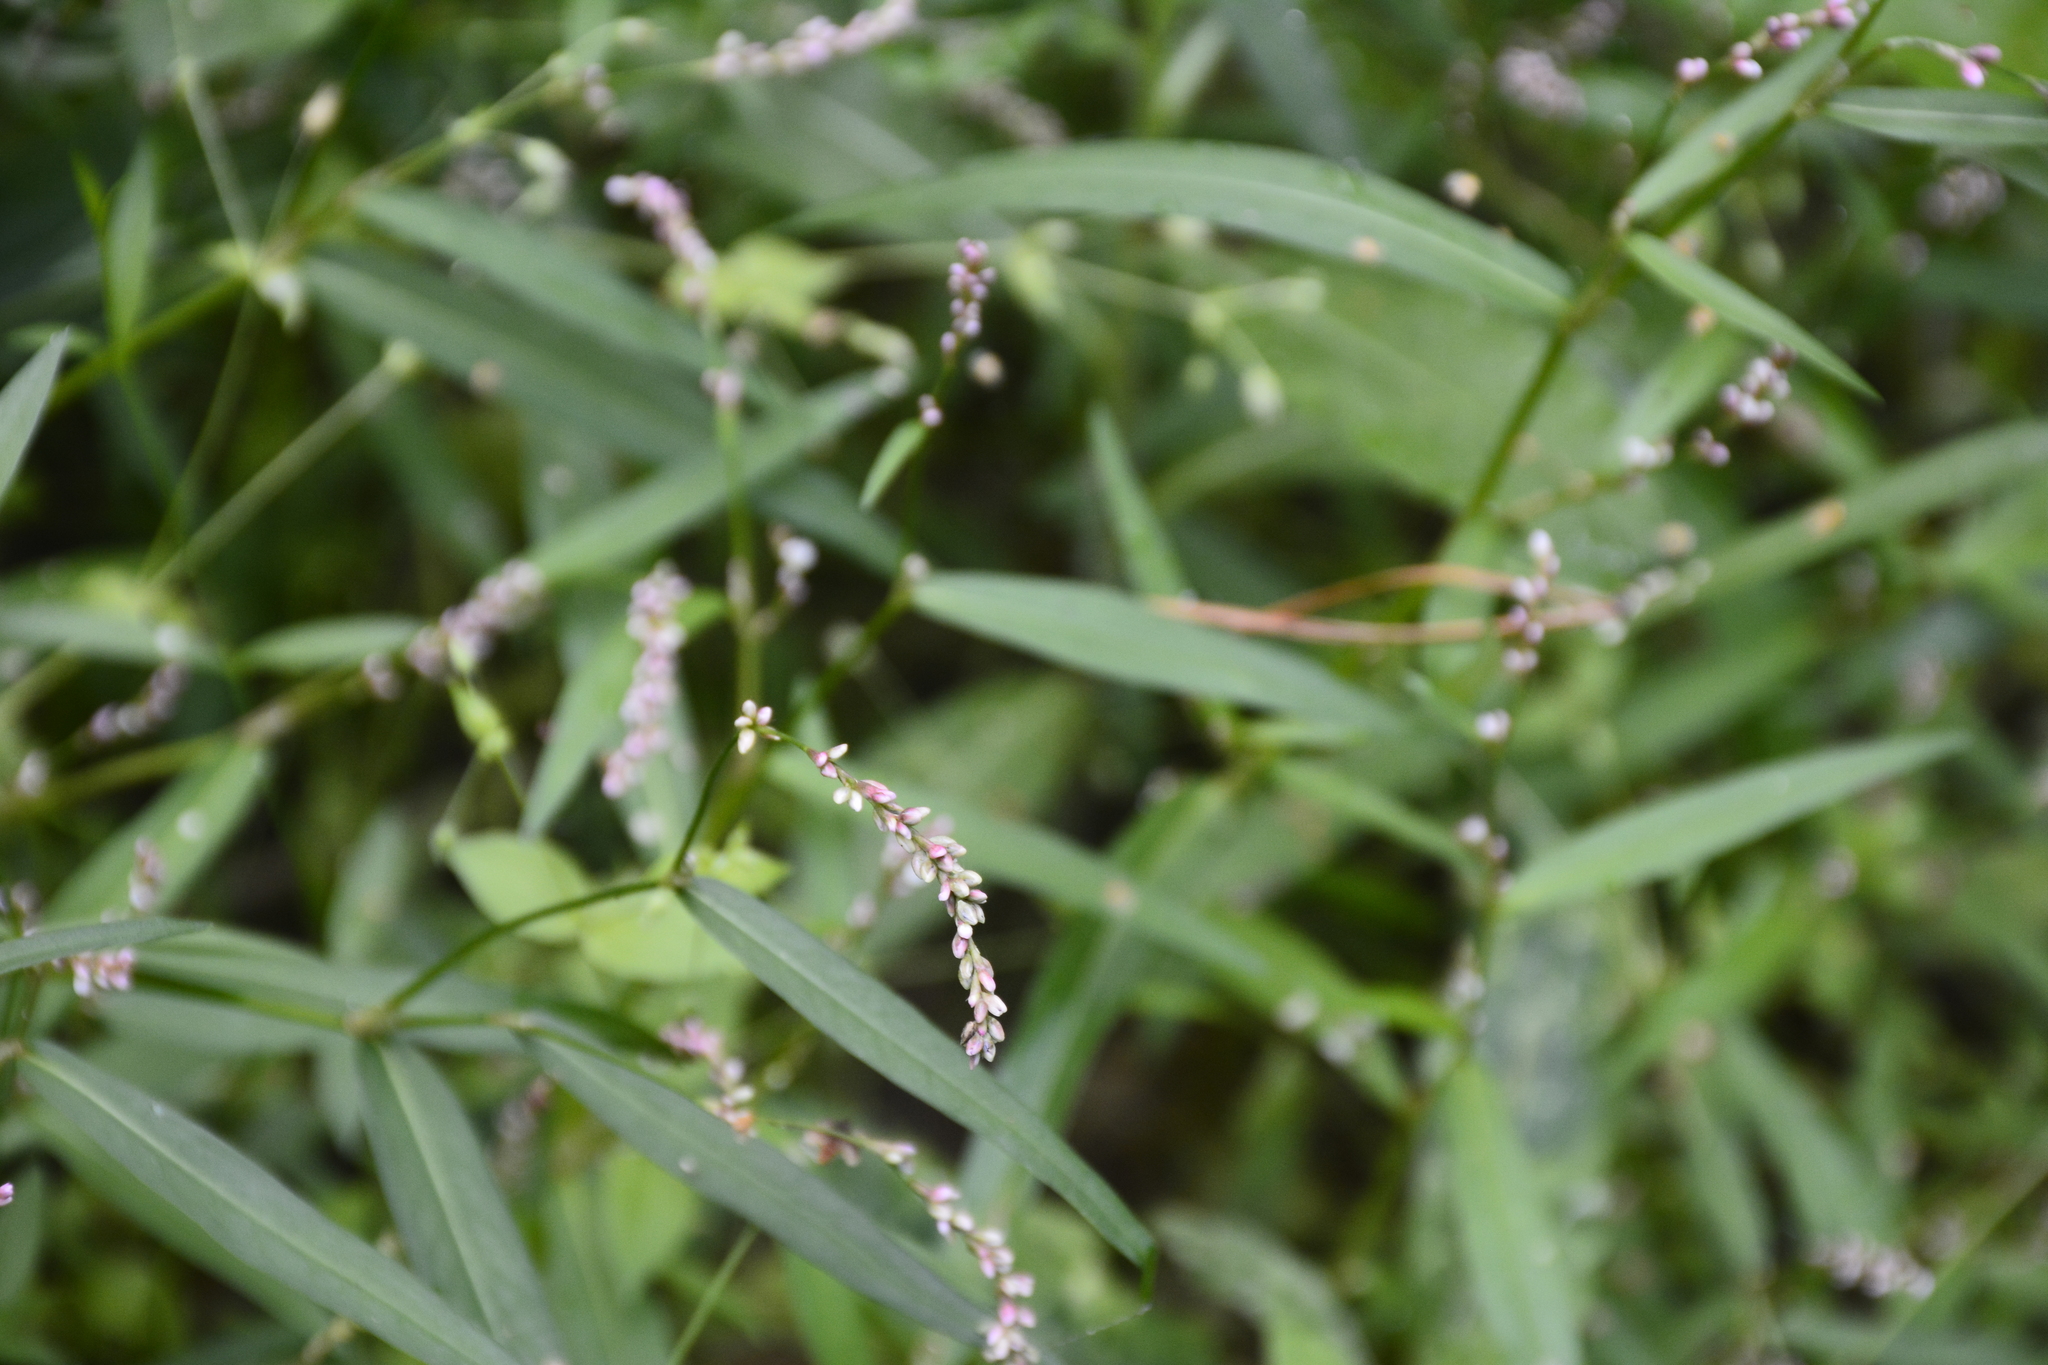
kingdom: Plantae
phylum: Tracheophyta
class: Magnoliopsida
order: Caryophyllales
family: Polygonaceae
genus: Persicaria
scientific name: Persicaria minor
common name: Small water-pepper
